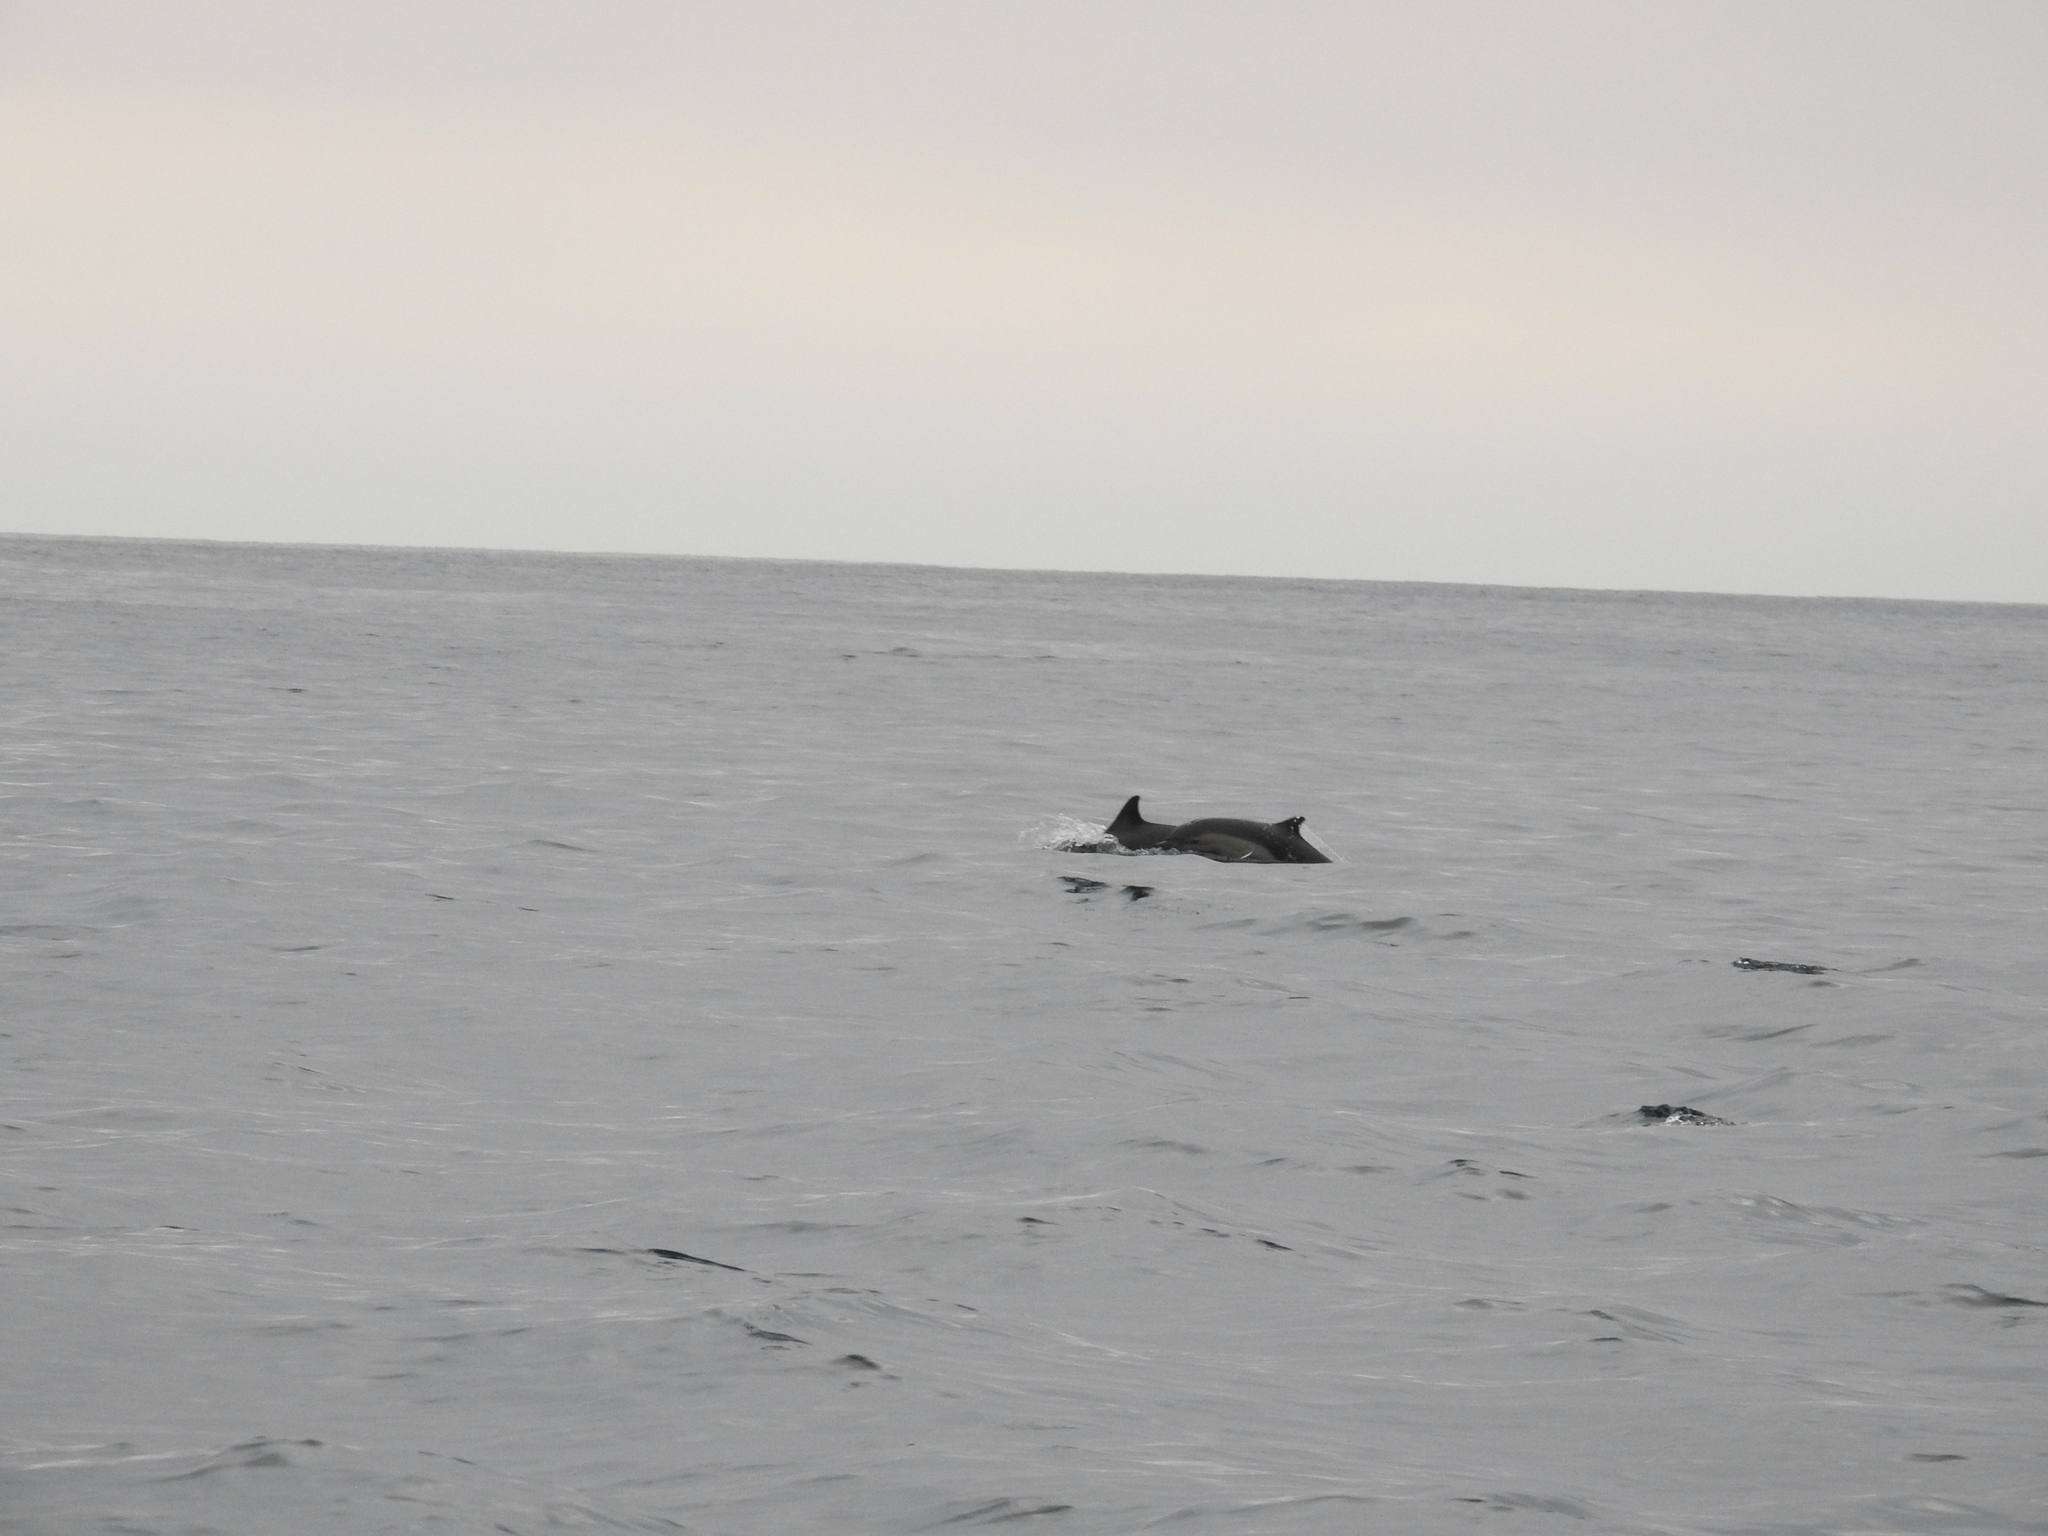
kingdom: Animalia
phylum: Chordata
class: Mammalia
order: Cetacea
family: Delphinidae
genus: Delphinus
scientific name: Delphinus delphis
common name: Common dolphin
